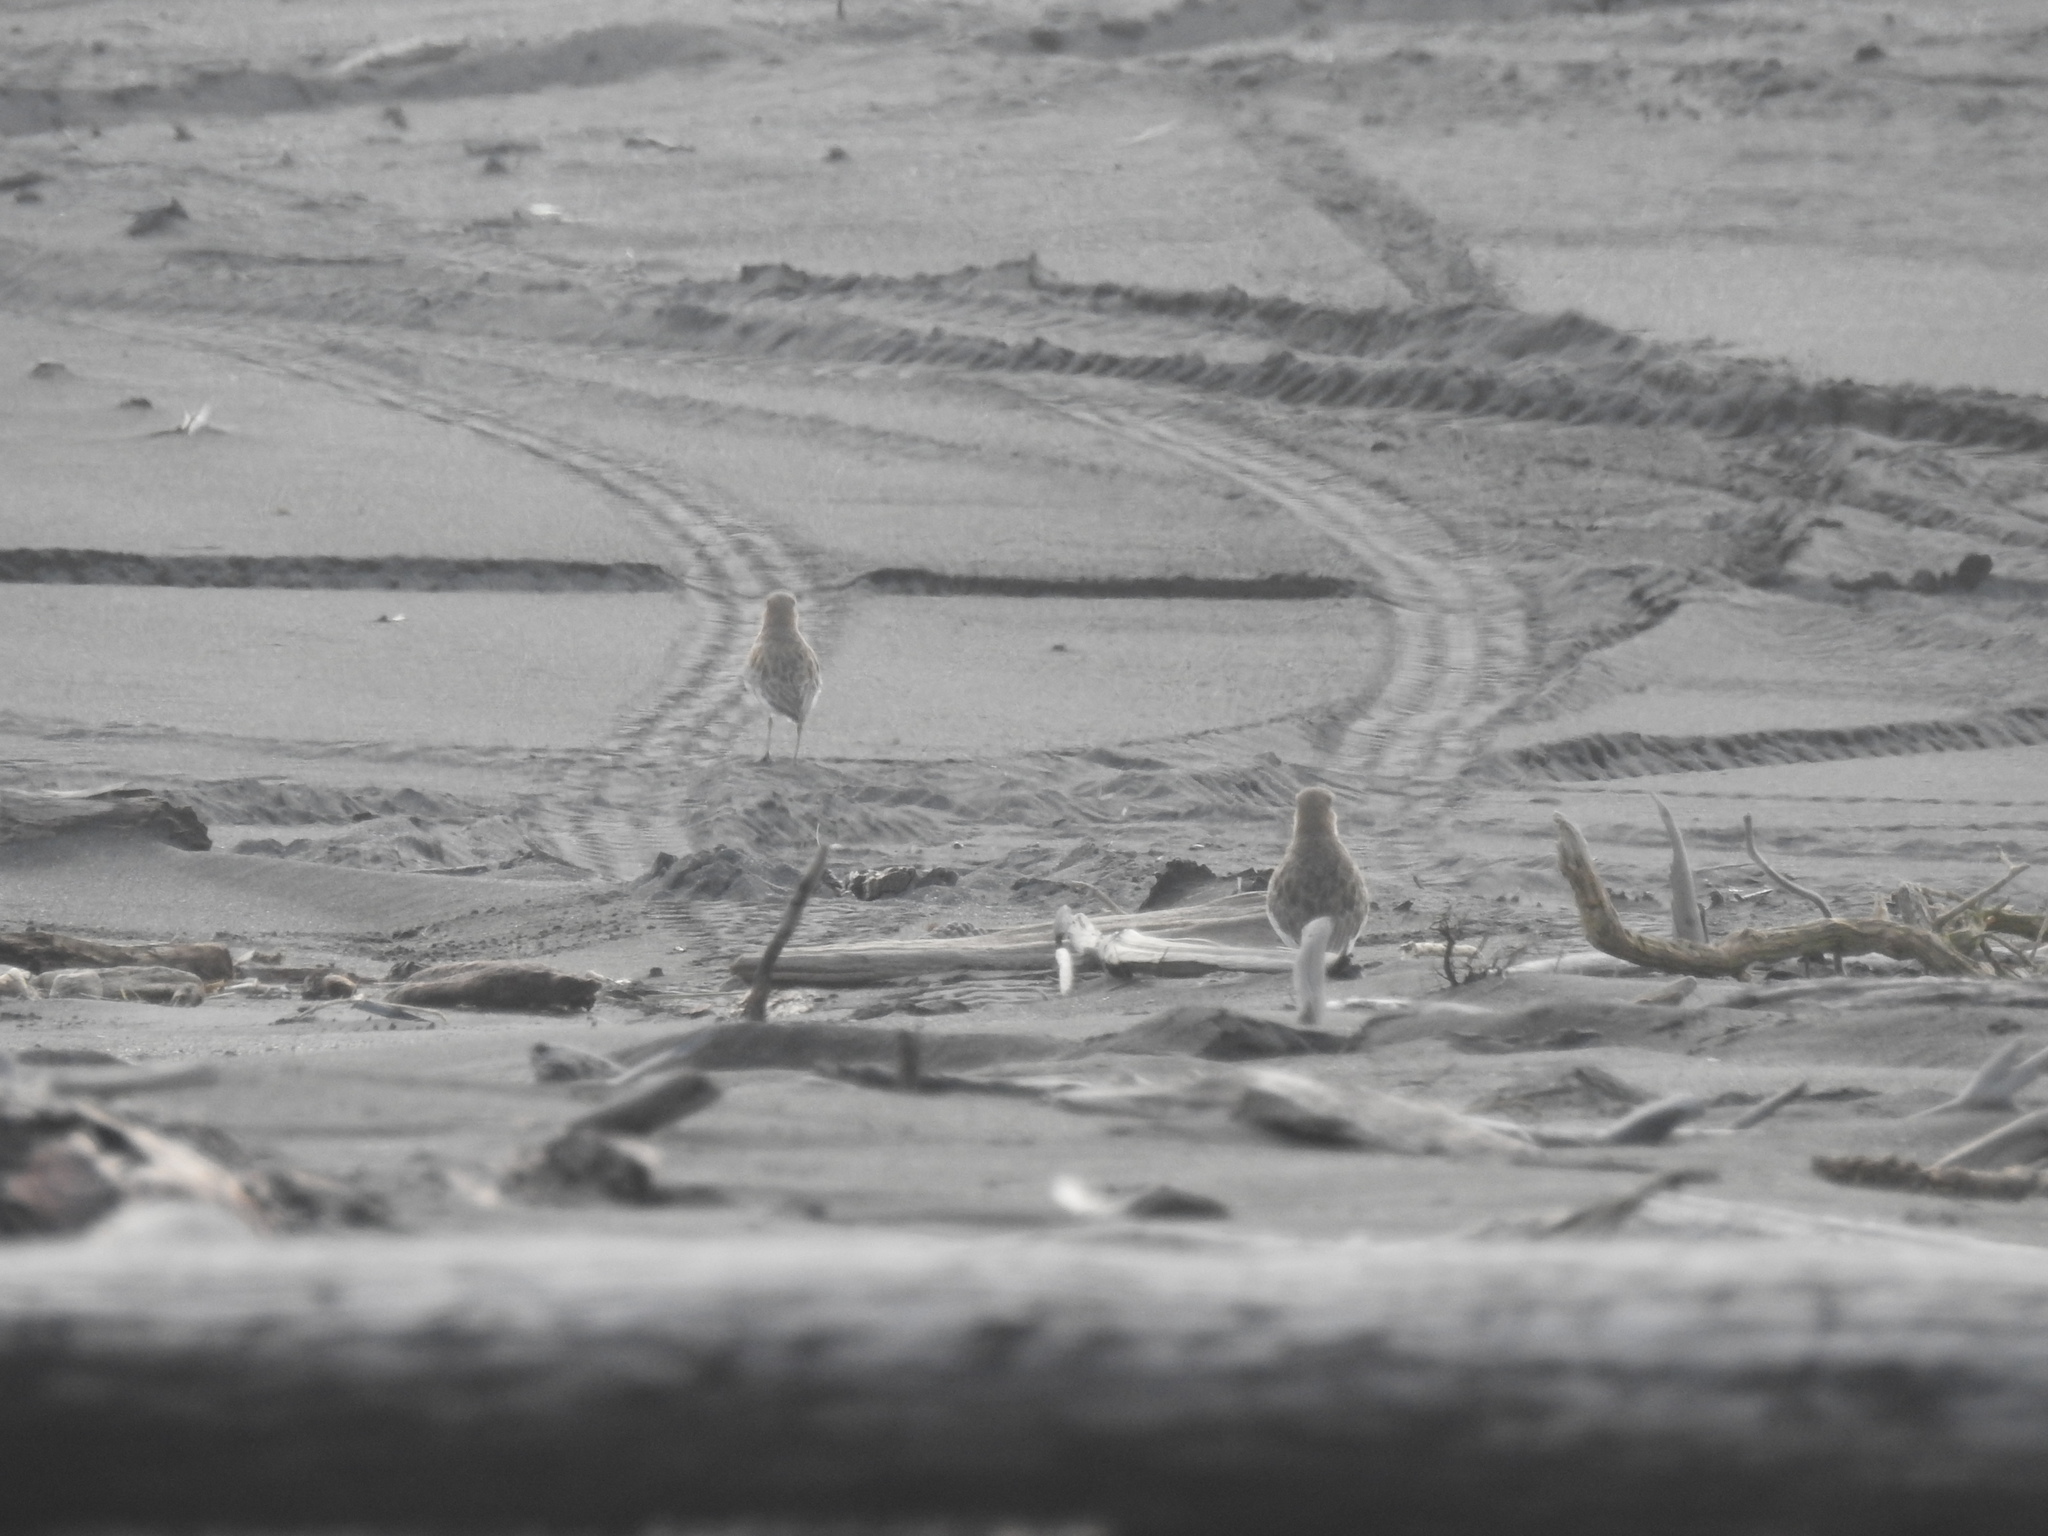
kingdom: Animalia
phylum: Chordata
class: Aves
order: Charadriiformes
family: Charadriidae
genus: Anarhynchus
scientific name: Anarhynchus
